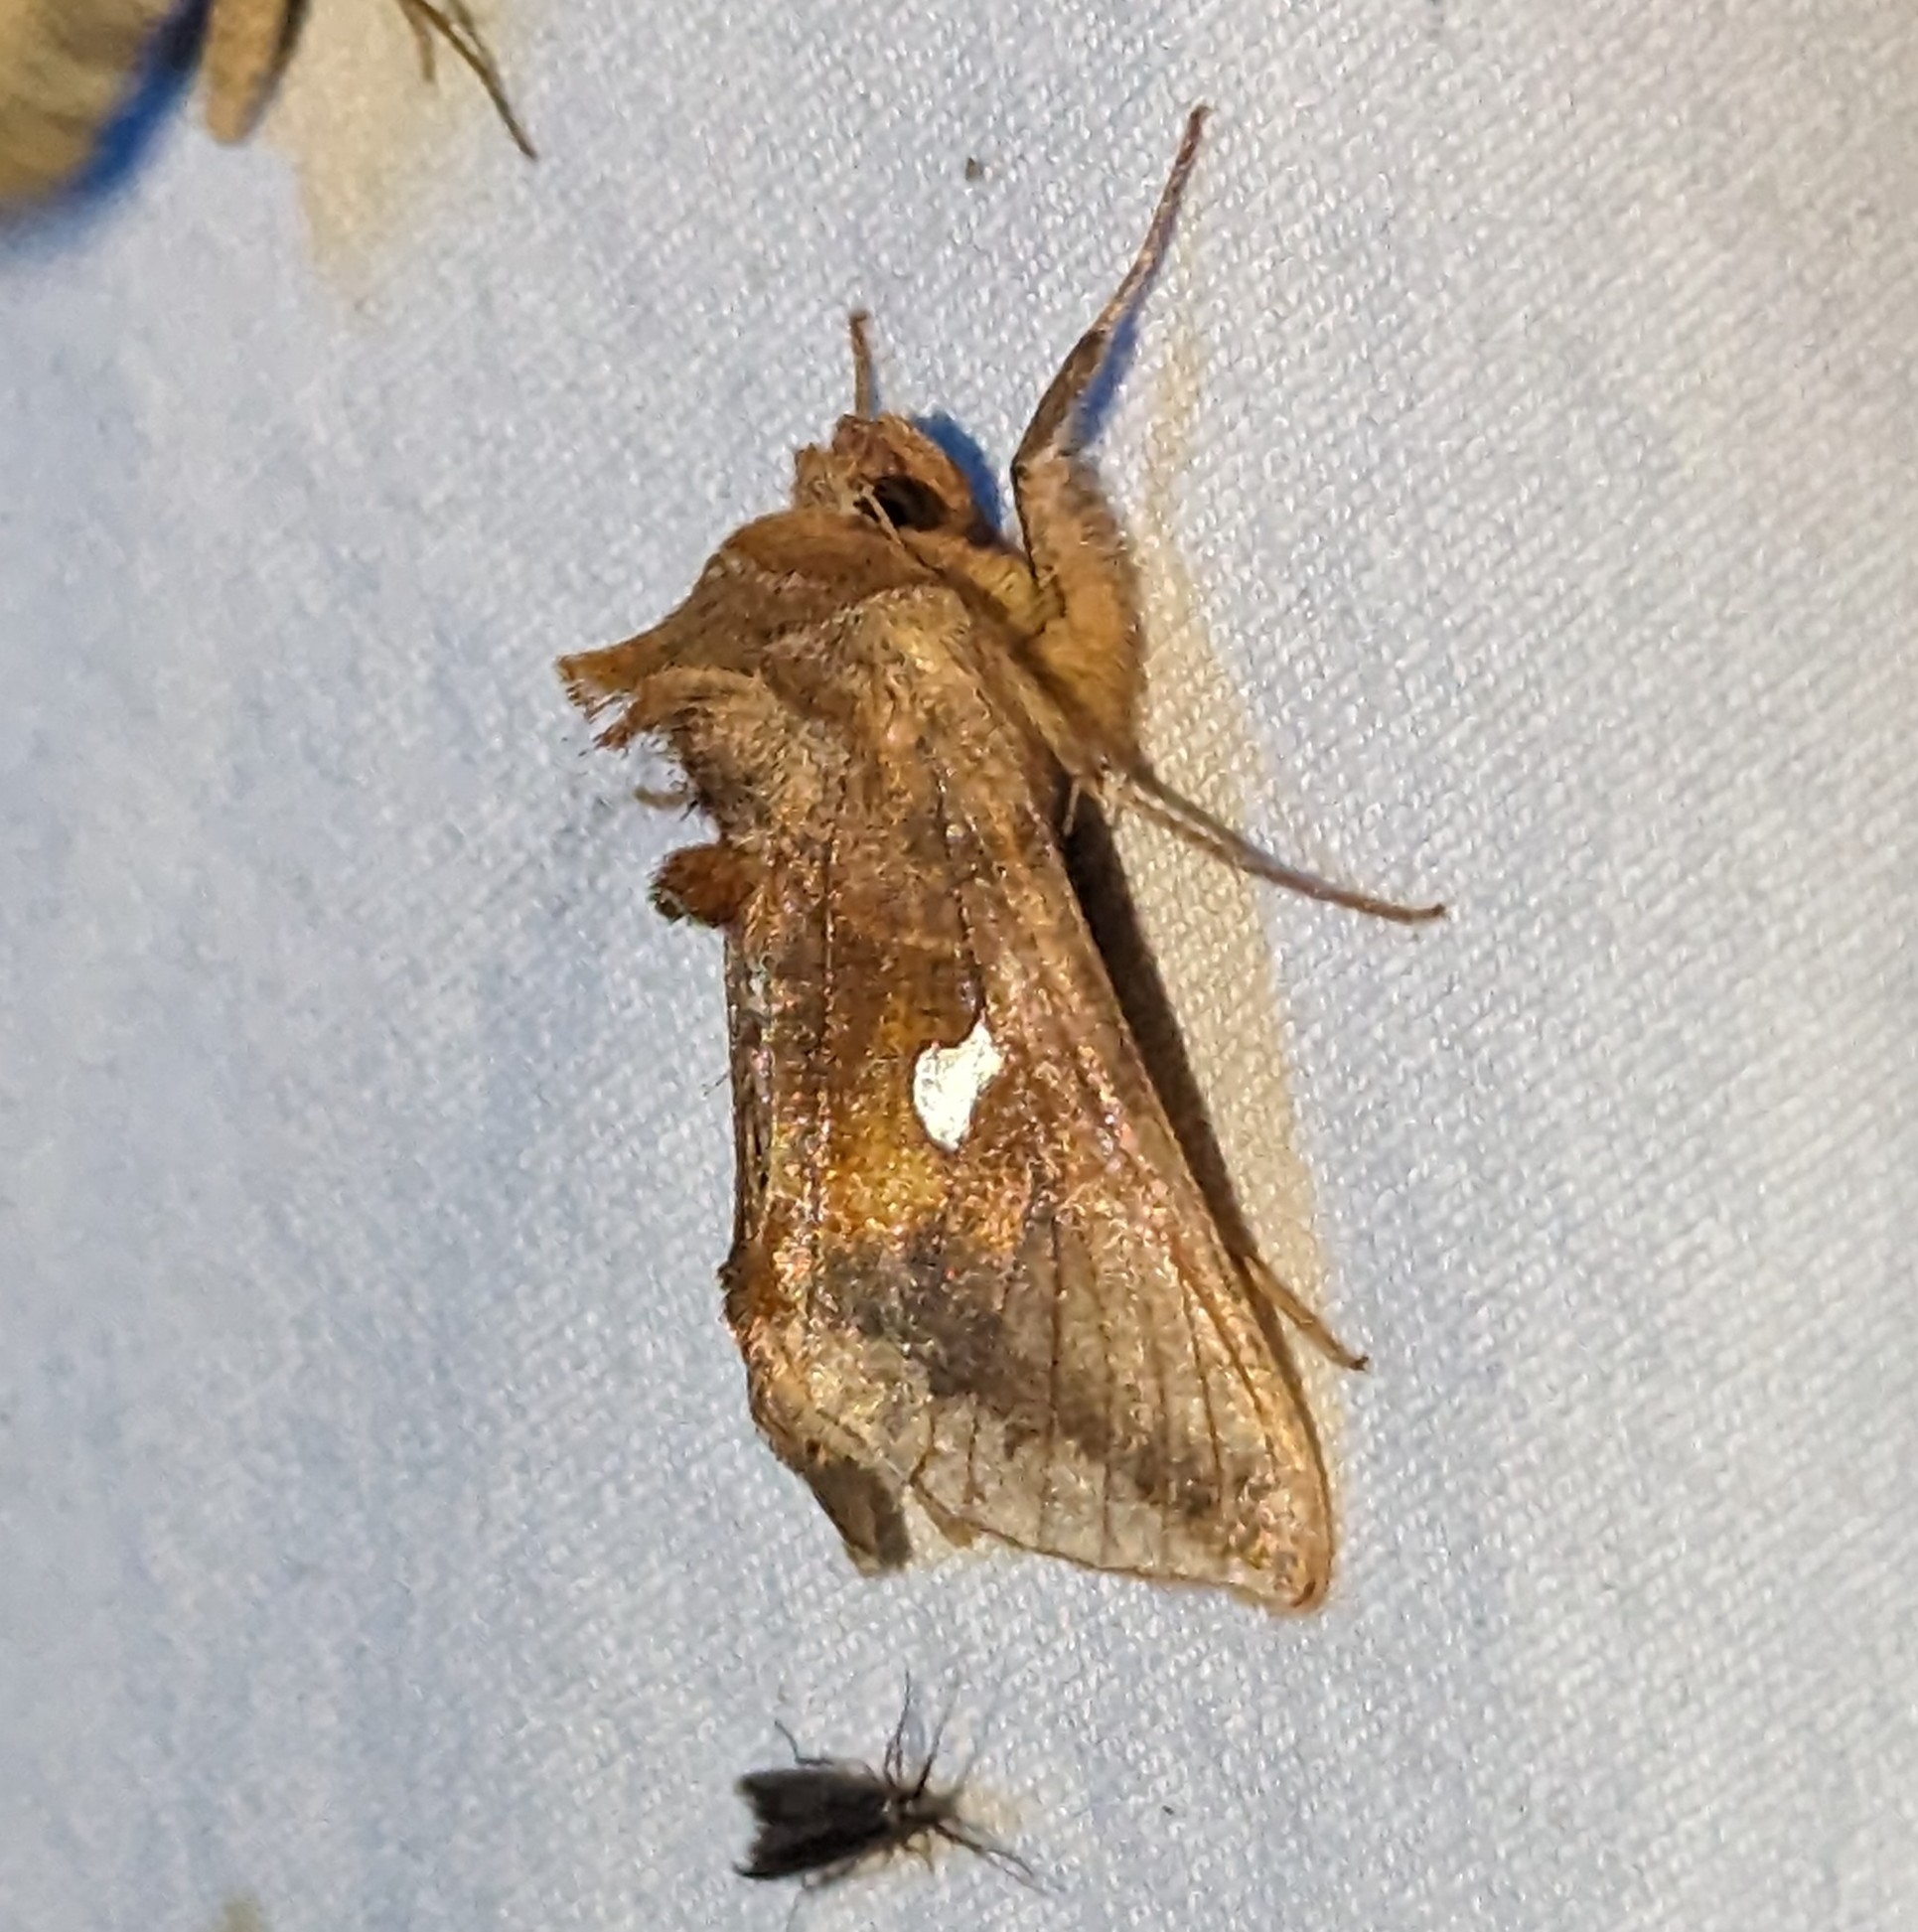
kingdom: Animalia
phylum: Arthropoda
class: Insecta
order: Lepidoptera
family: Noctuidae
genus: Autographa
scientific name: Autographa metallica
